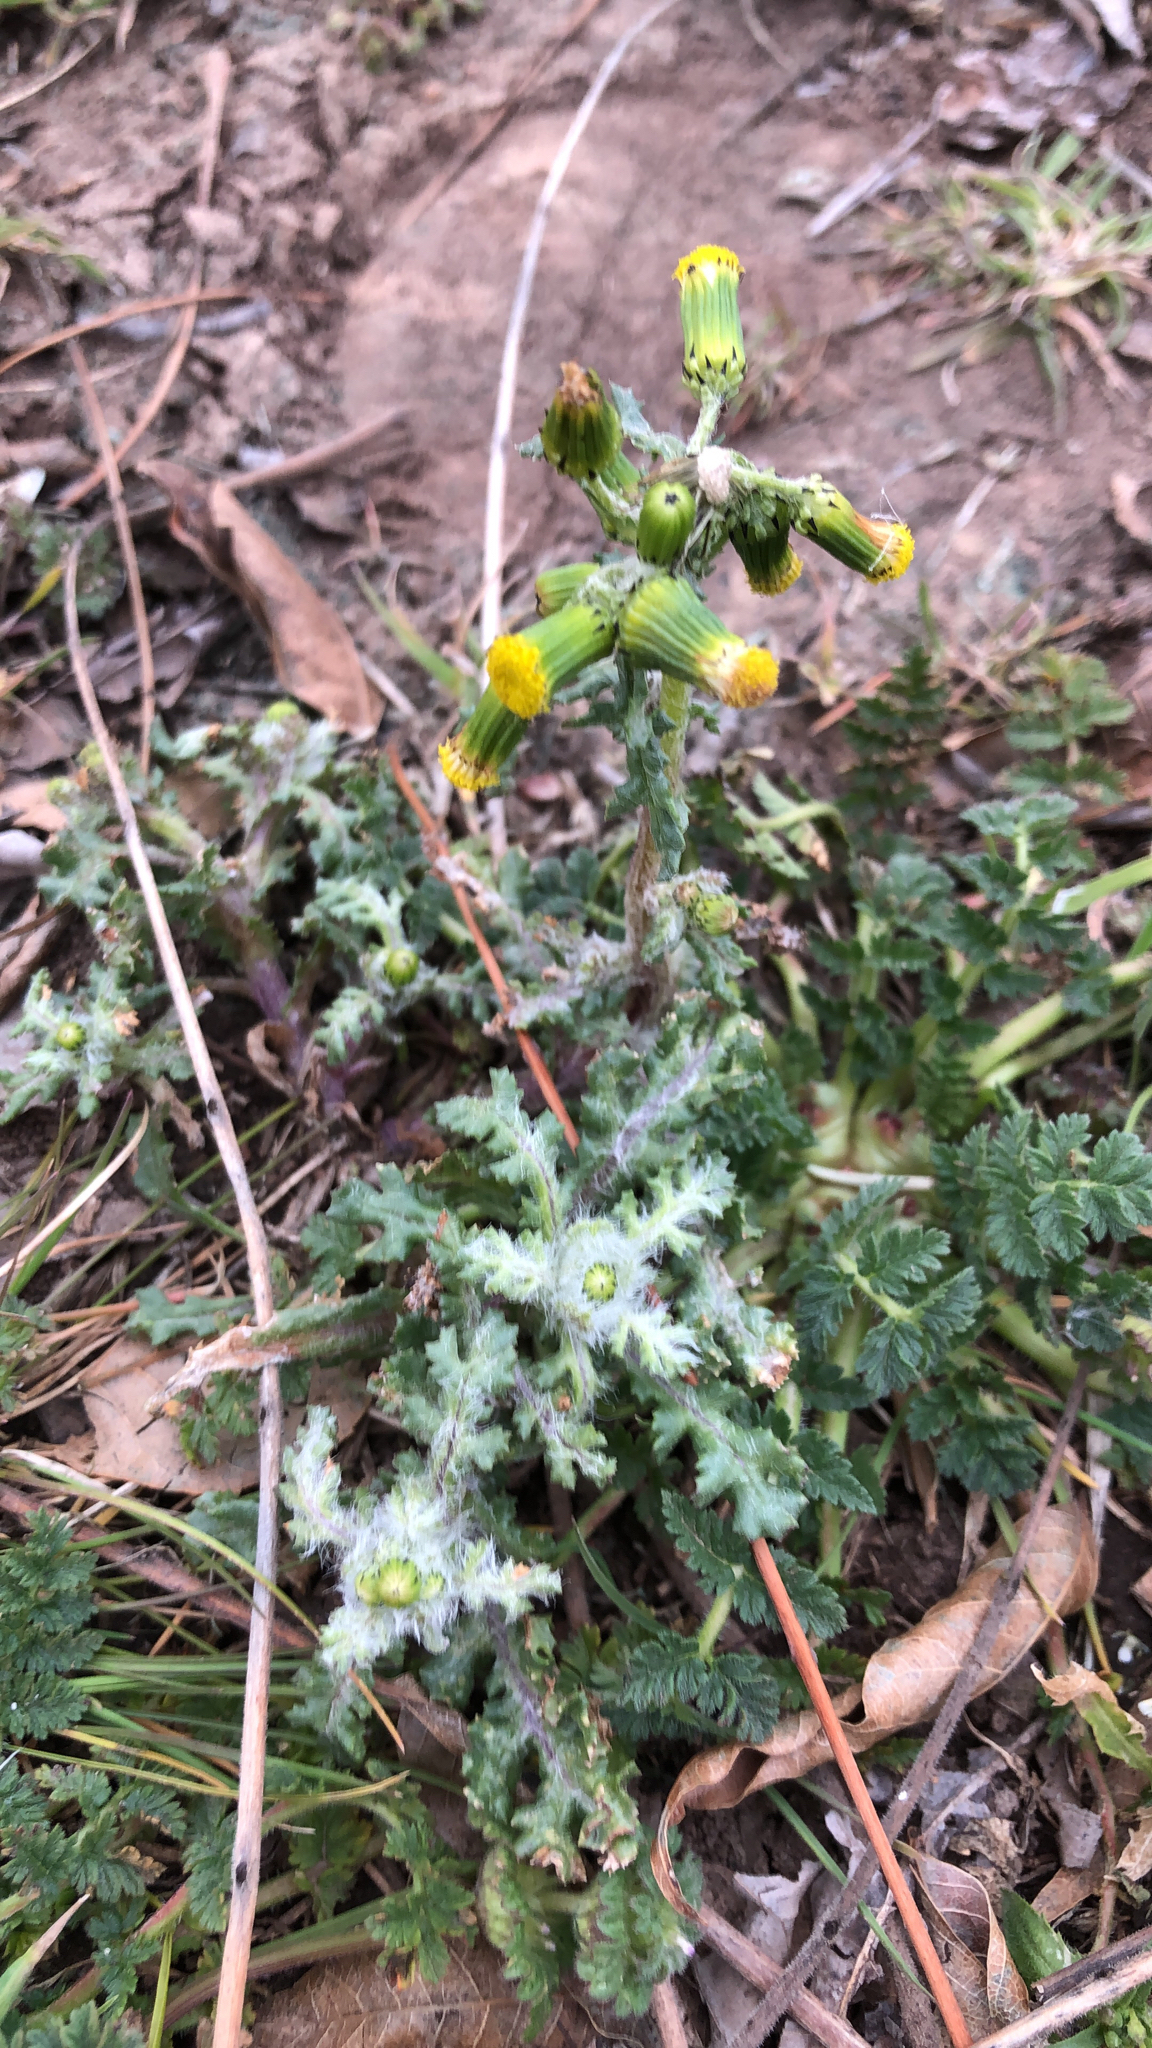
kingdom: Plantae
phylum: Tracheophyta
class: Magnoliopsida
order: Asterales
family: Asteraceae
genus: Senecio
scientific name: Senecio vulgaris
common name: Old-man-in-the-spring
